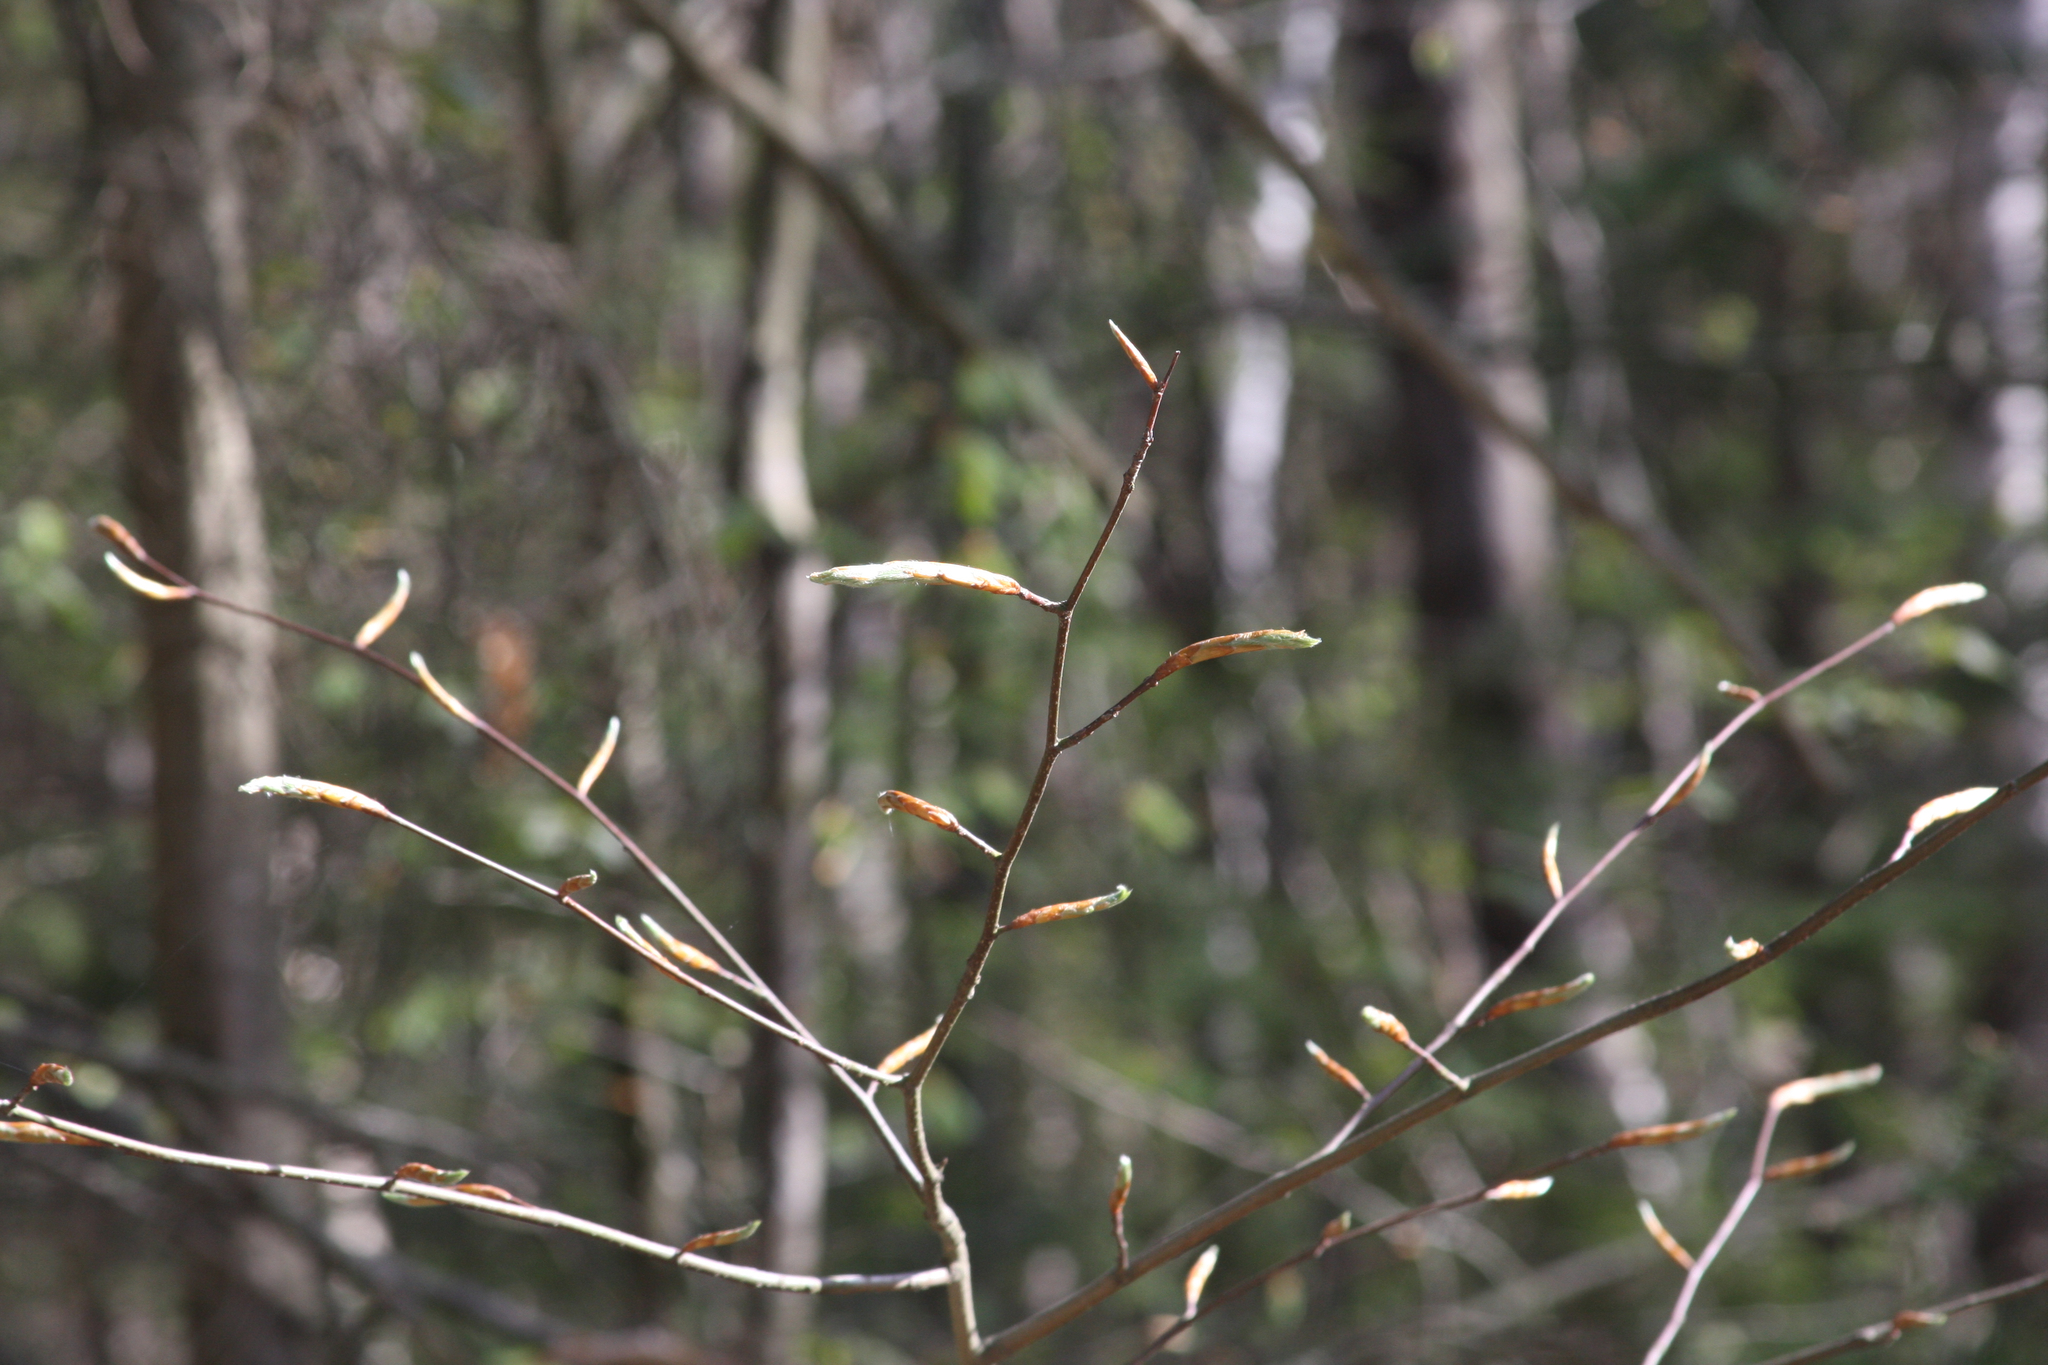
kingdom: Plantae
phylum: Tracheophyta
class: Magnoliopsida
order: Fagales
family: Fagaceae
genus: Fagus
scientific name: Fagus grandifolia
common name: American beech
